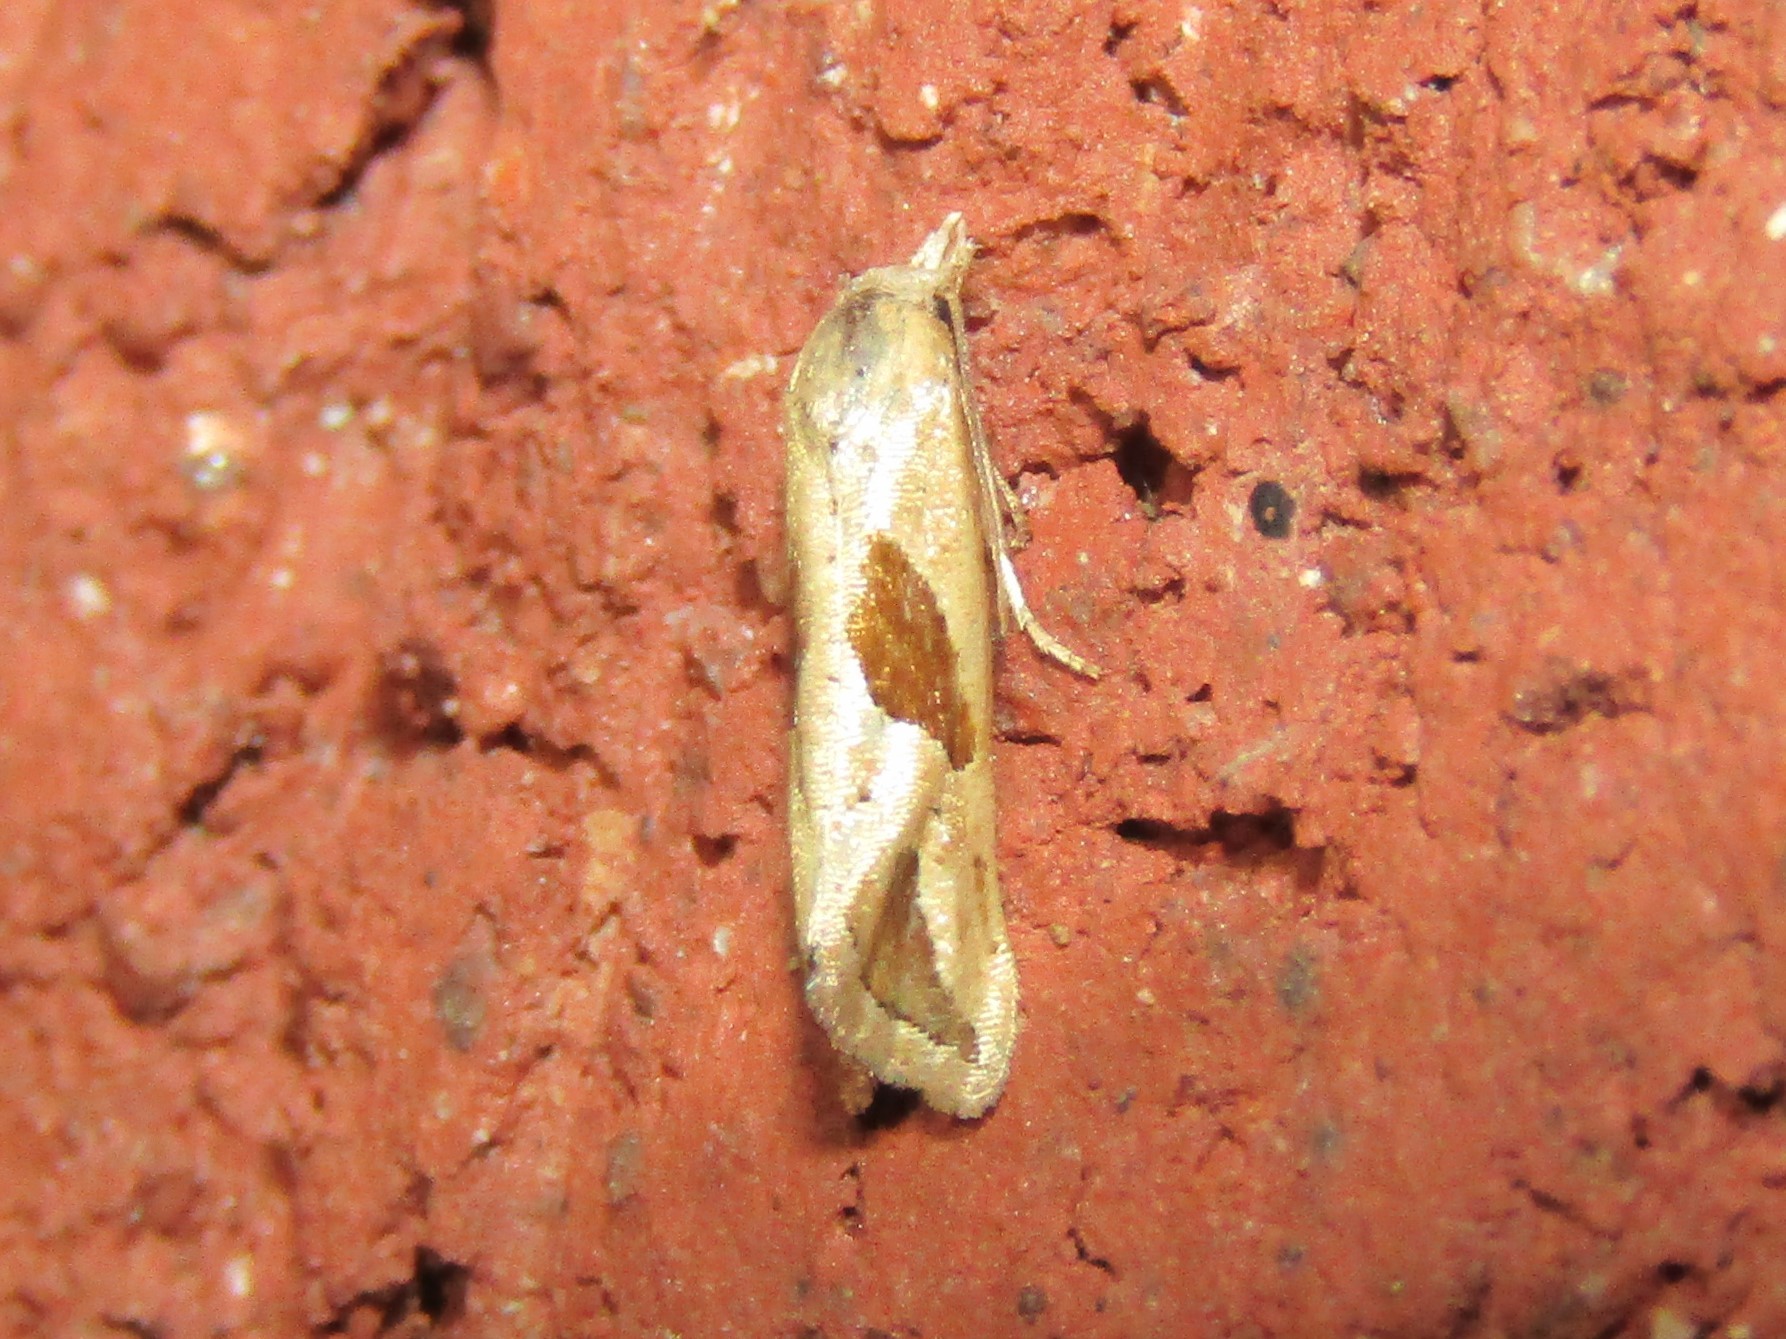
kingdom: Animalia
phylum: Arthropoda
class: Insecta
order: Lepidoptera
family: Tortricidae
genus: Eugnosta
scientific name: Eugnosta bimaculana
